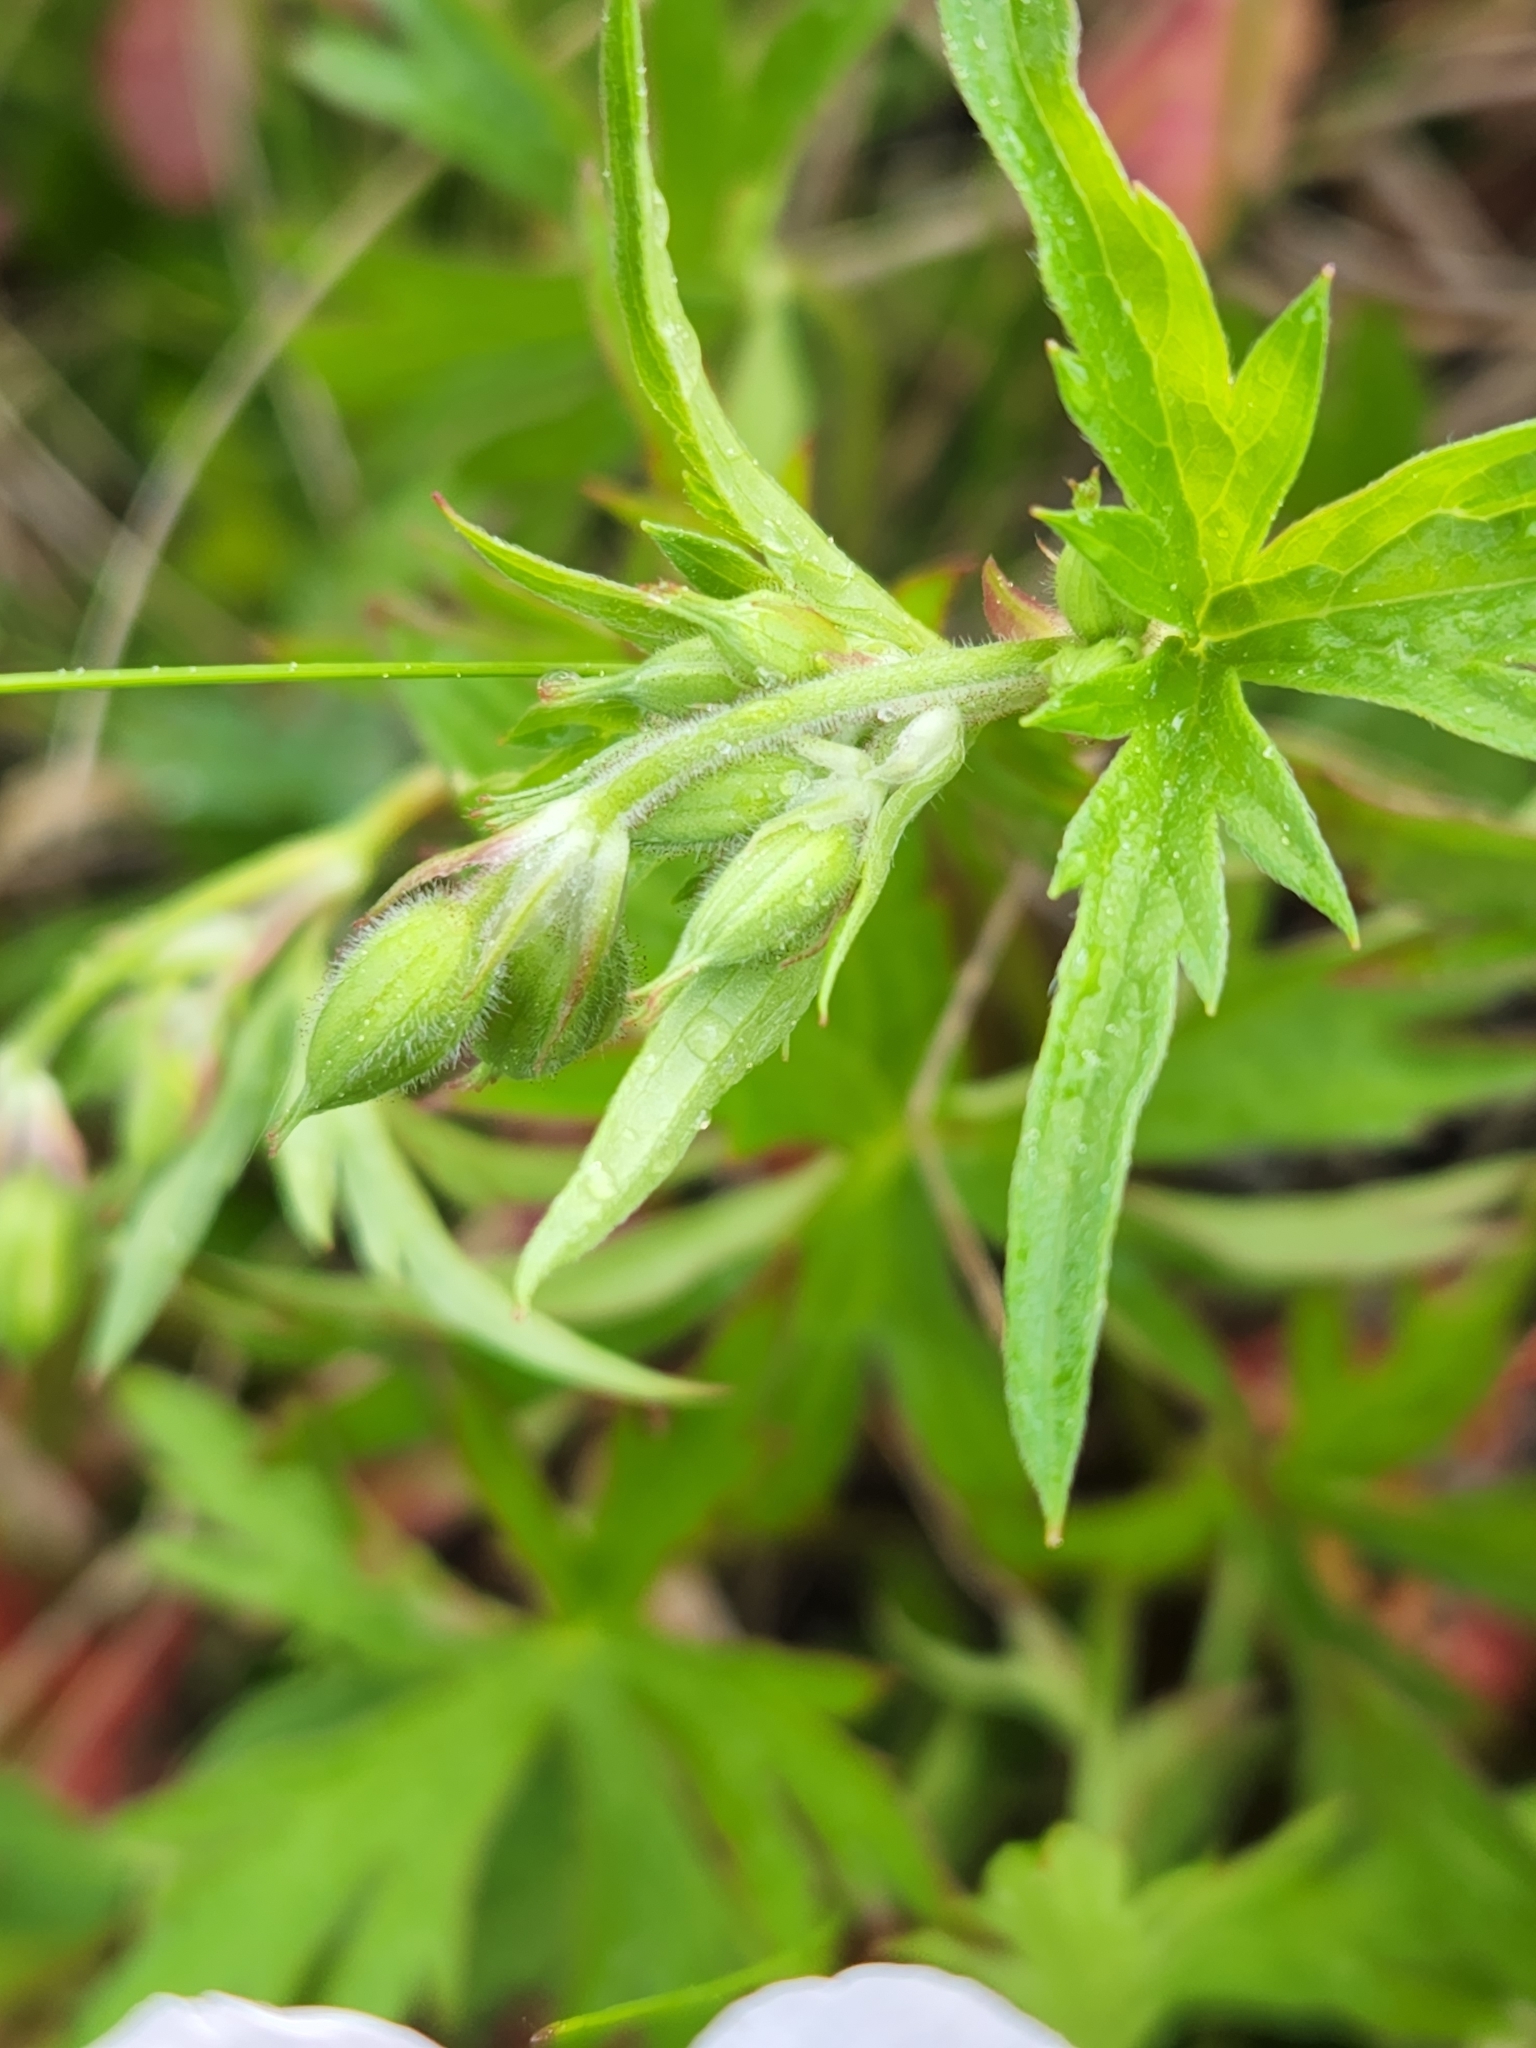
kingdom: Plantae
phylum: Tracheophyta
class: Magnoliopsida
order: Geraniales
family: Geraniaceae
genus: Geranium
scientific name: Geranium richardsonii
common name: Richardson's crane's-bill
